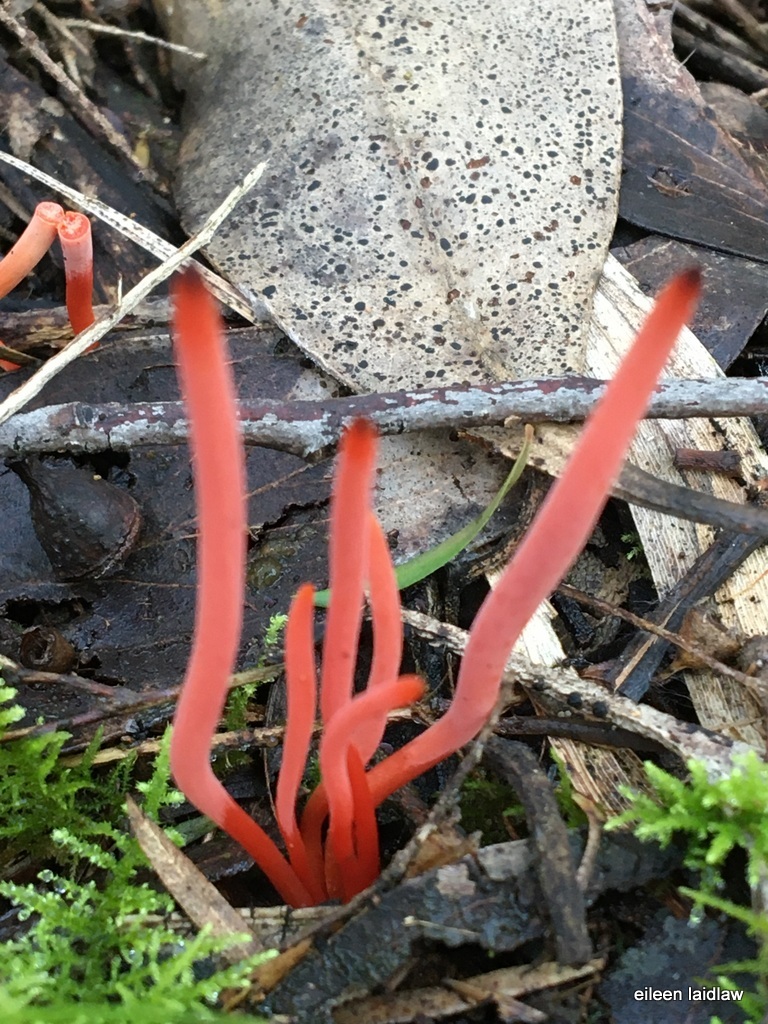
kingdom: Fungi
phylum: Basidiomycota
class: Agaricomycetes
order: Agaricales
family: Clavariaceae
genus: Clavulinopsis
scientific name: Clavulinopsis corallinorosacea
